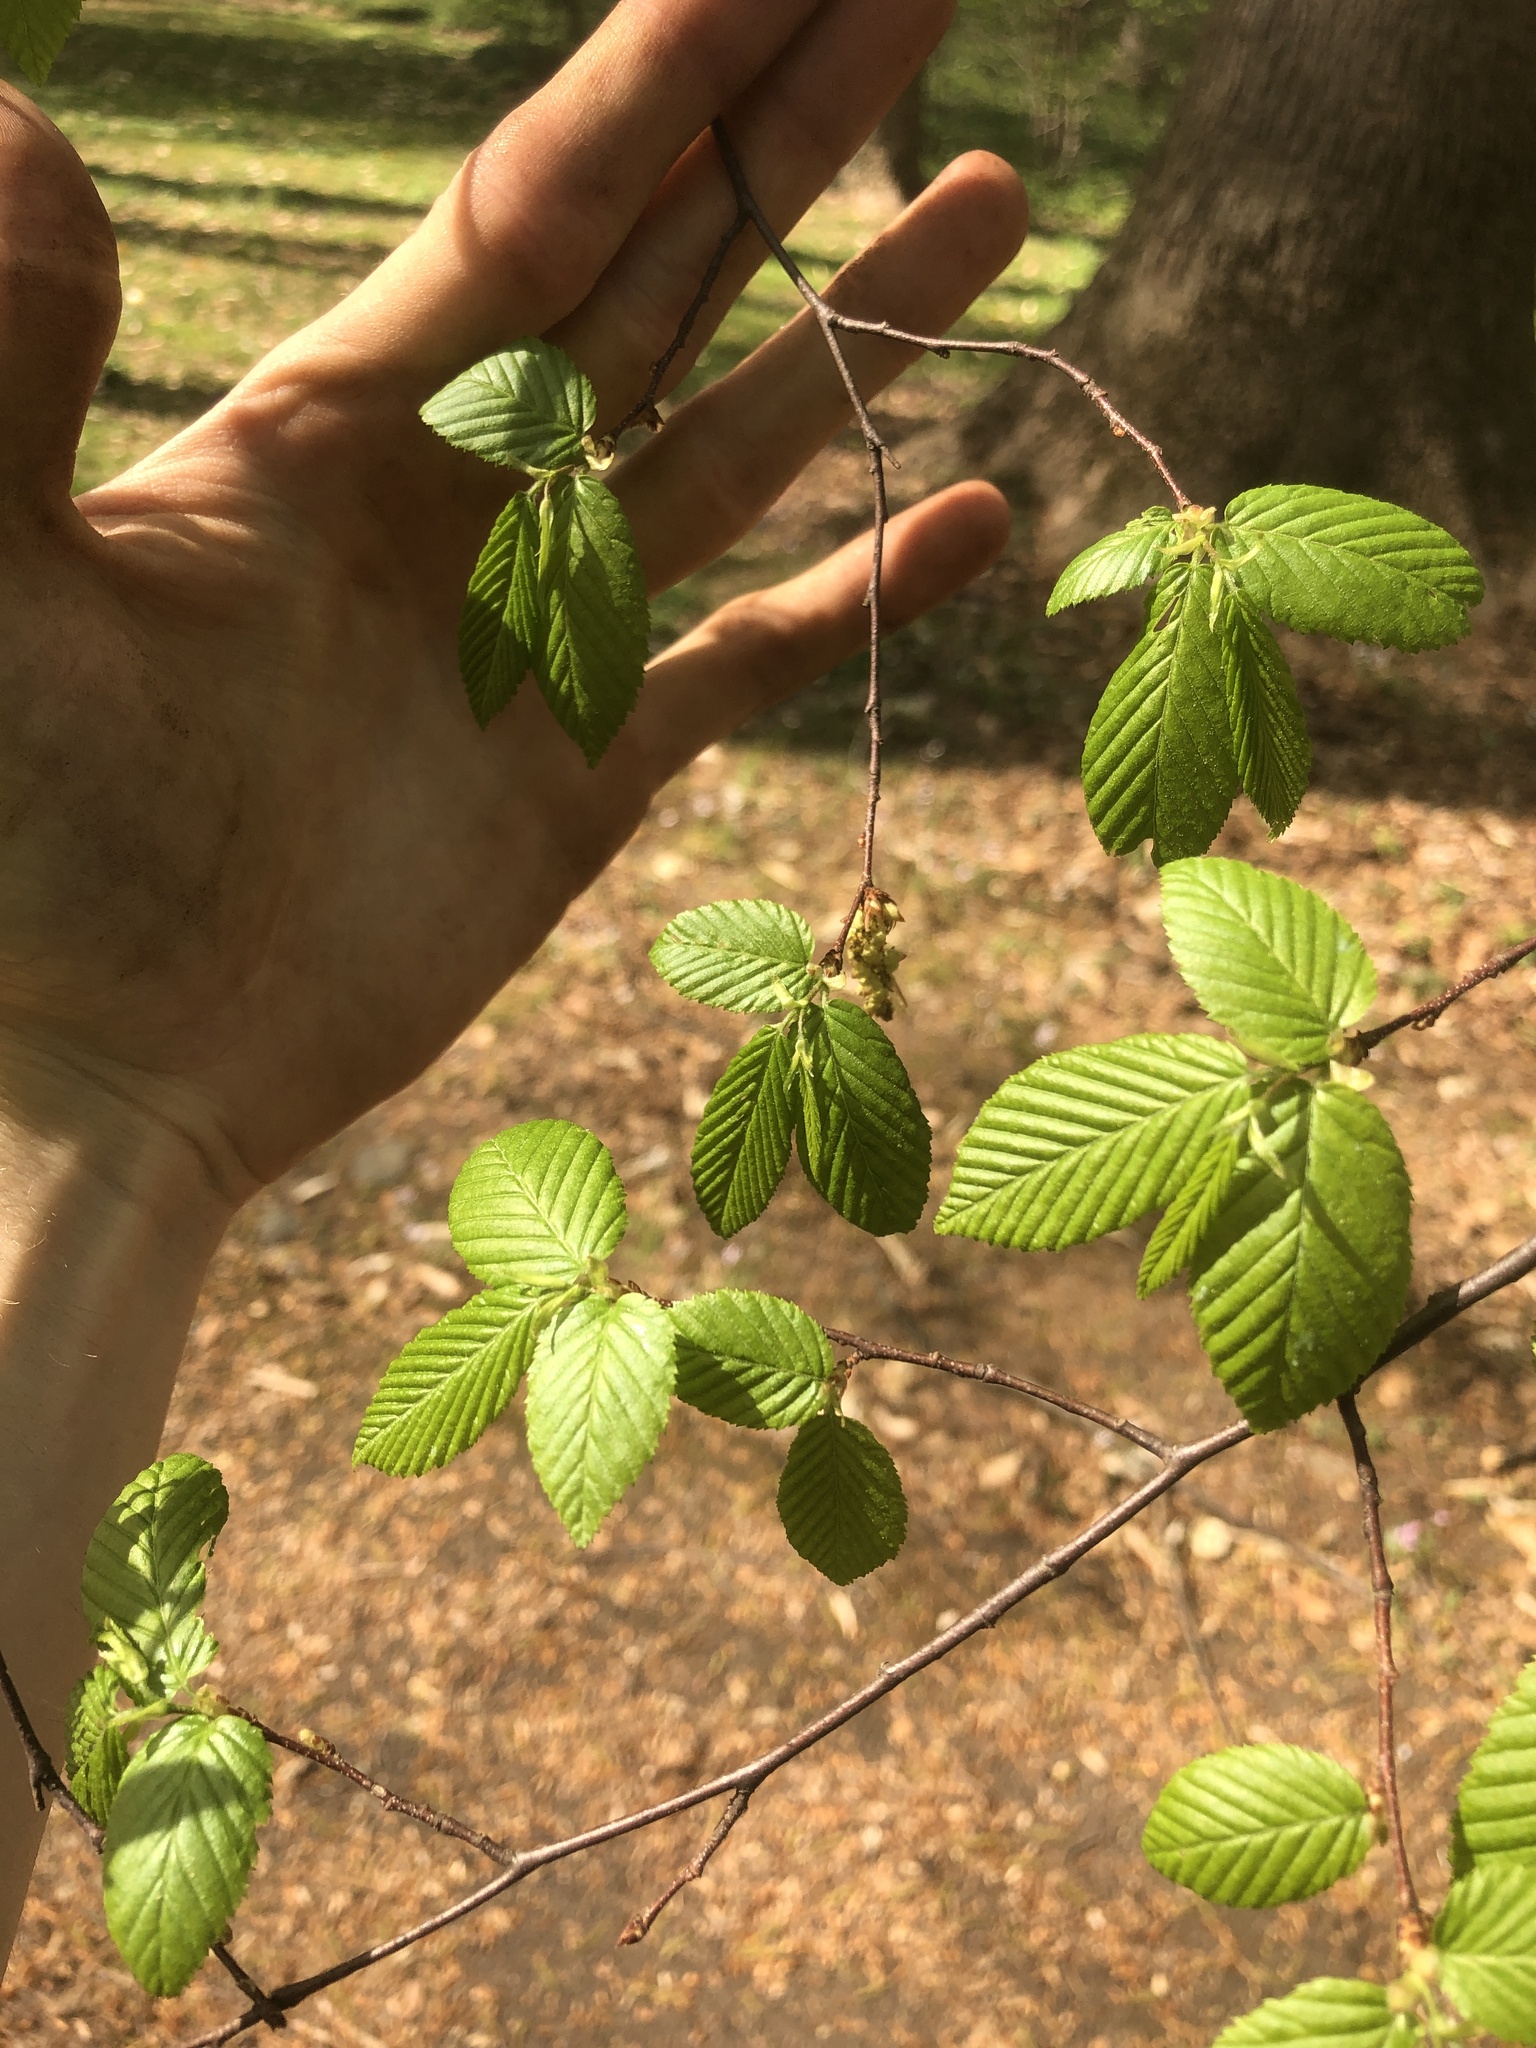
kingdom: Plantae
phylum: Tracheophyta
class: Magnoliopsida
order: Fagales
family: Betulaceae
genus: Carpinus
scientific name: Carpinus caroliniana
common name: American hornbeam
